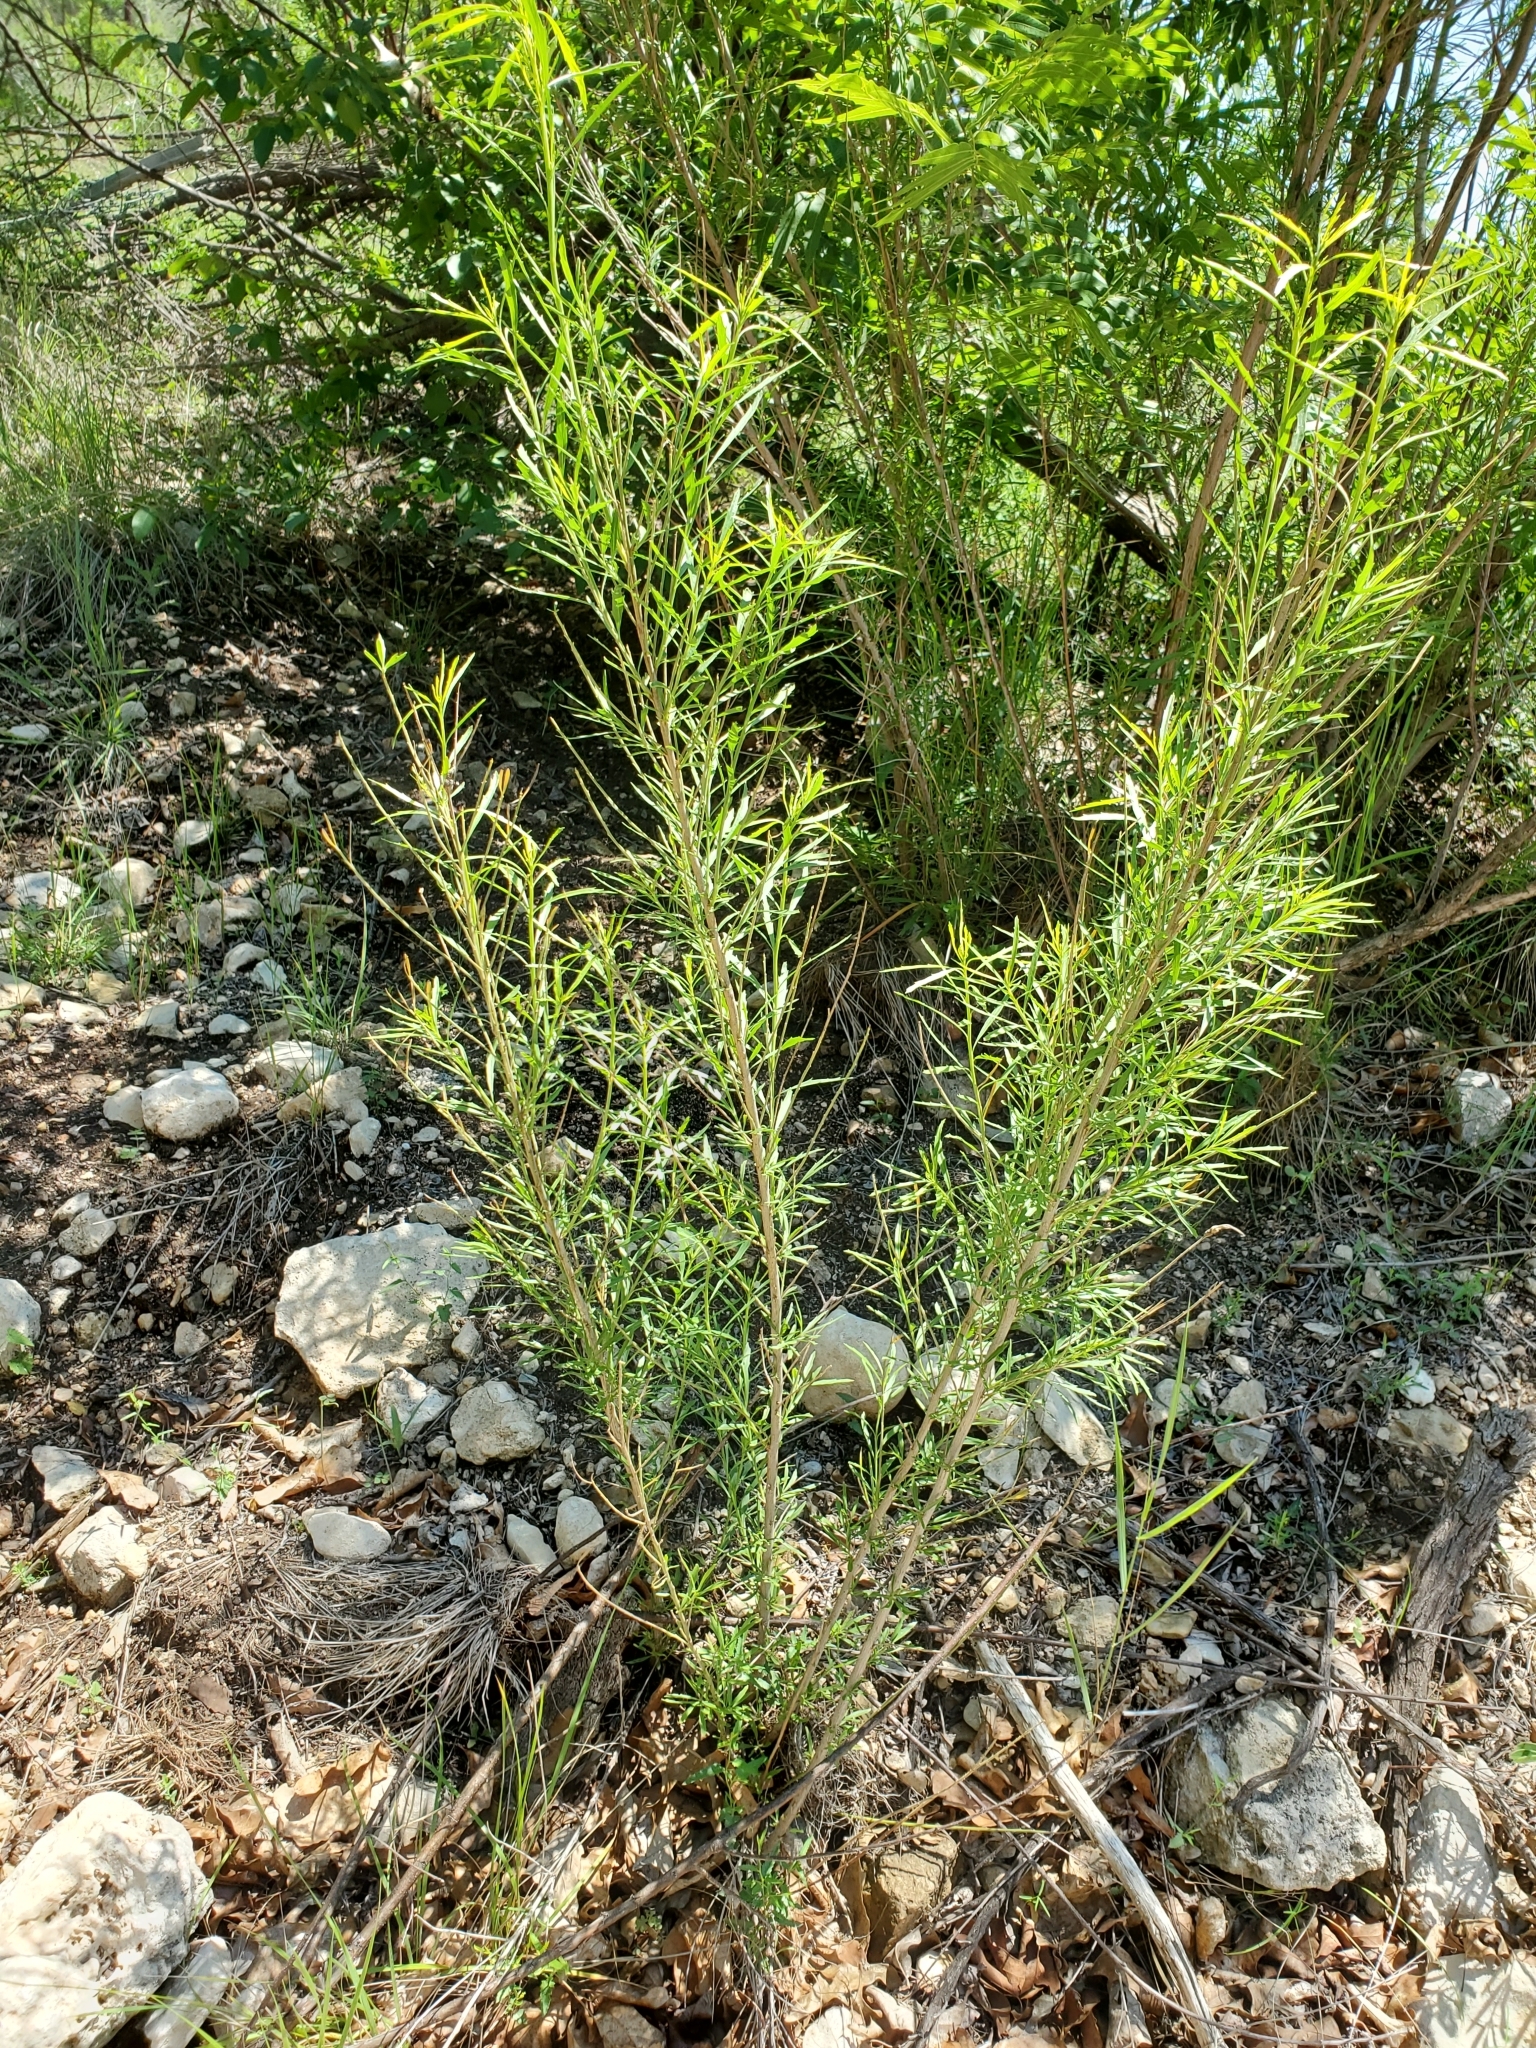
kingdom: Plantae
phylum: Tracheophyta
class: Magnoliopsida
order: Asterales
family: Asteraceae
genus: Baccharis
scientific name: Baccharis neglecta
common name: Roosevelt-weed
